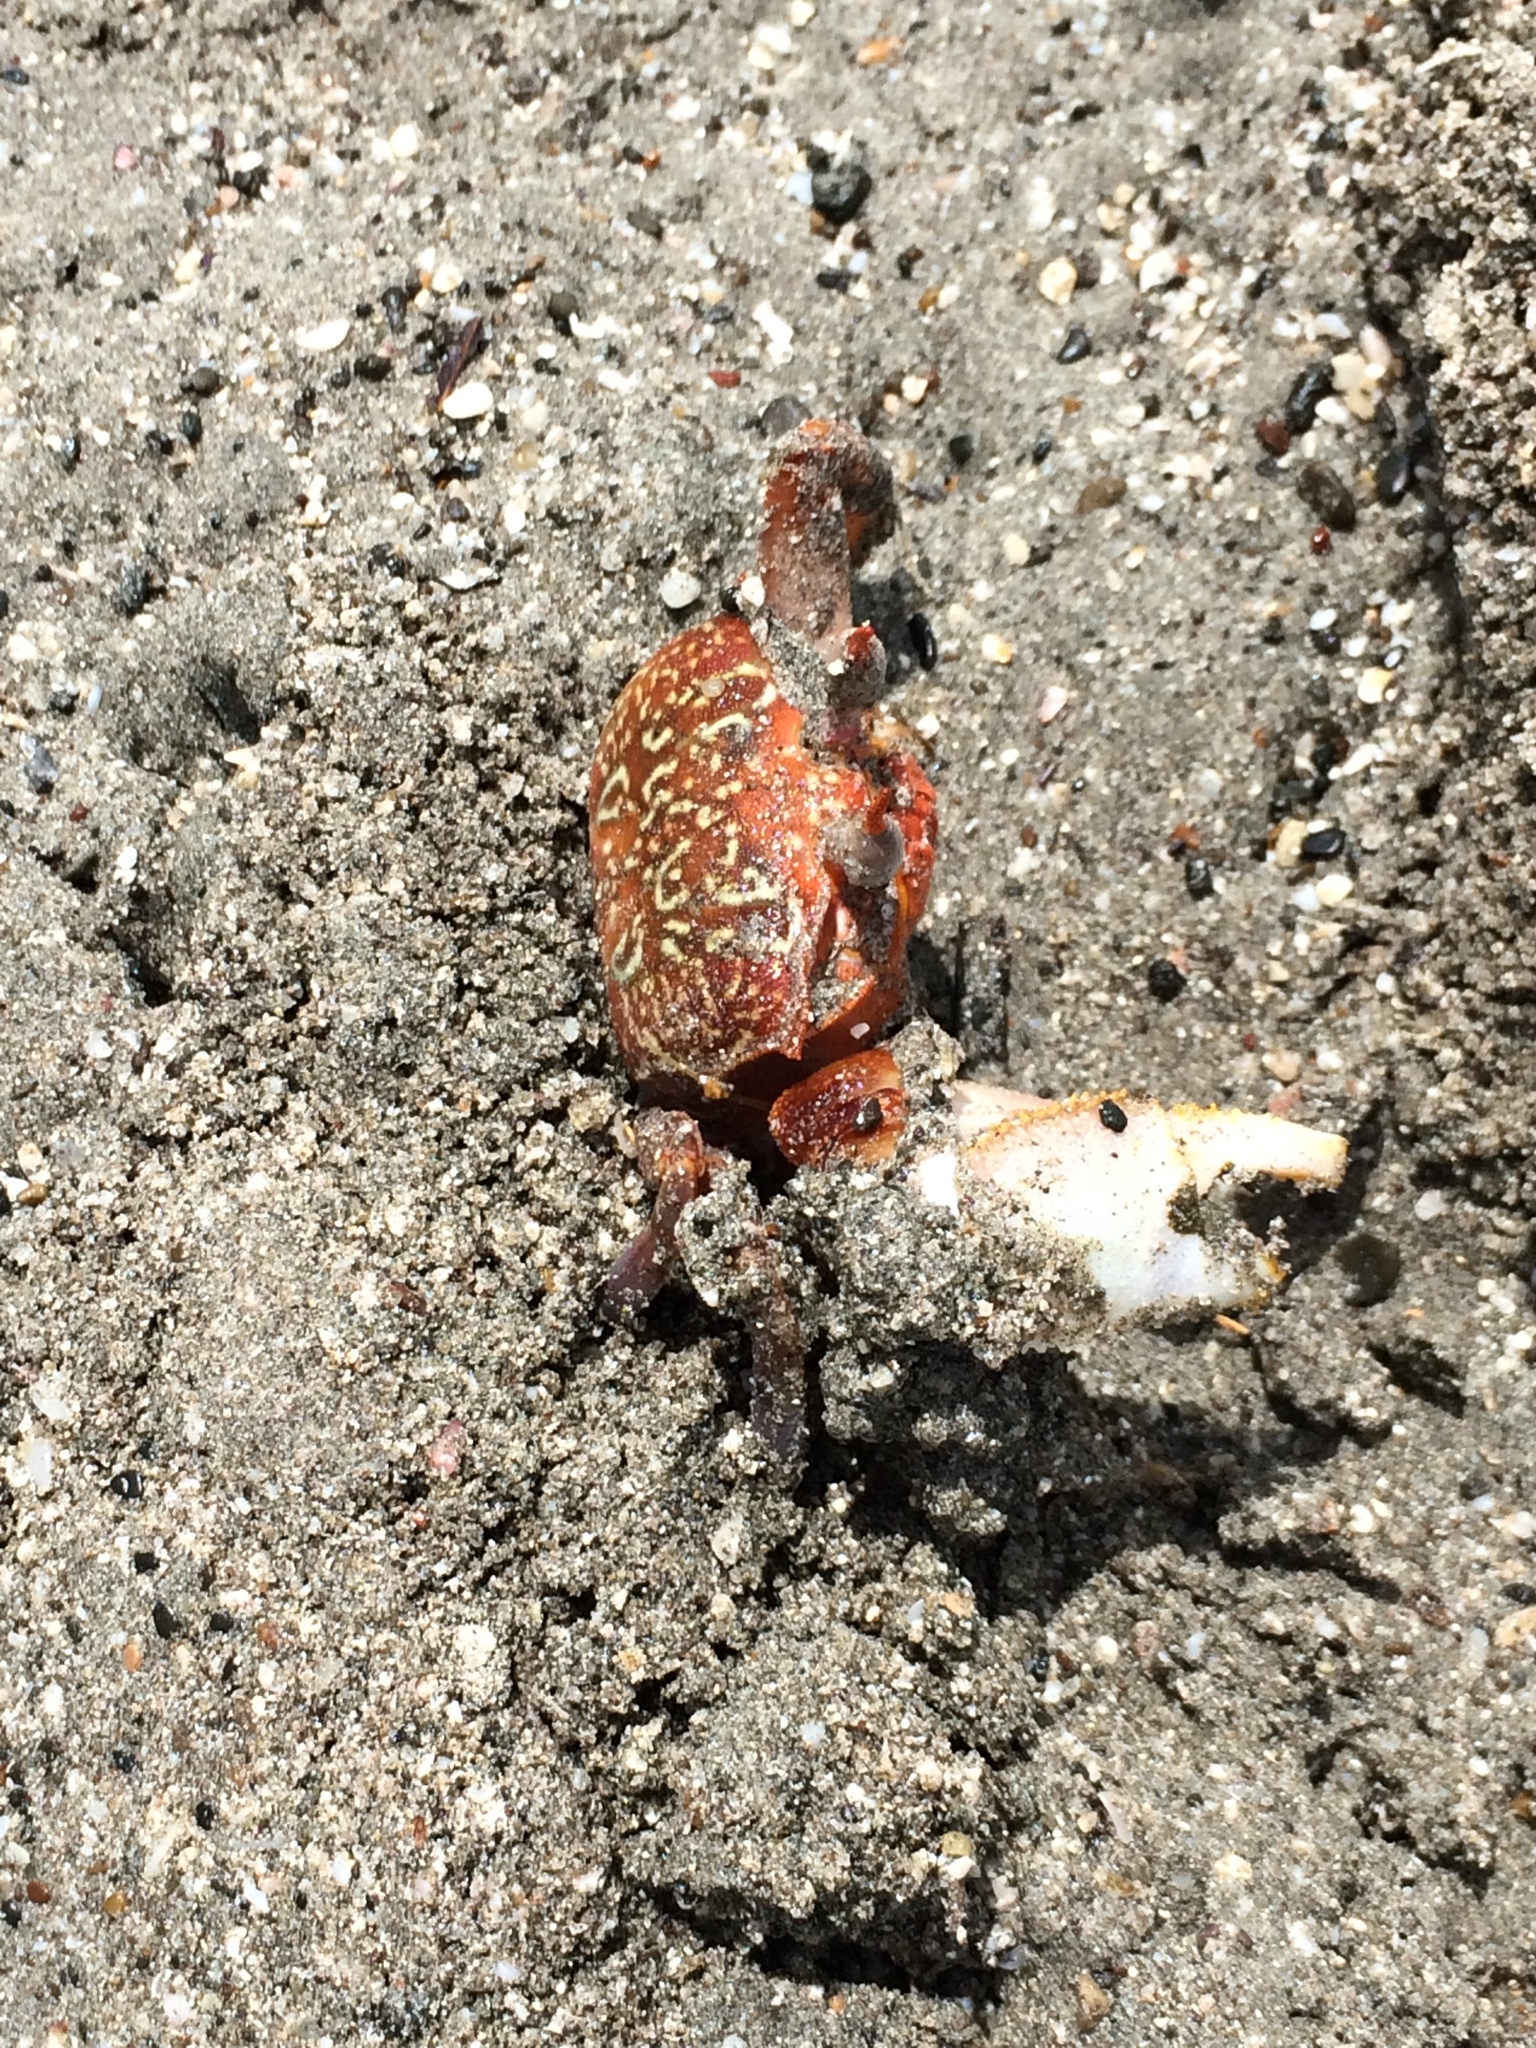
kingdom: Animalia
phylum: Arthropoda
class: Malacostraca
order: Decapoda
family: Ocypodidae
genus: Ocypode
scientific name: Ocypode gaudichaudii
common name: Pacific ghost crab
